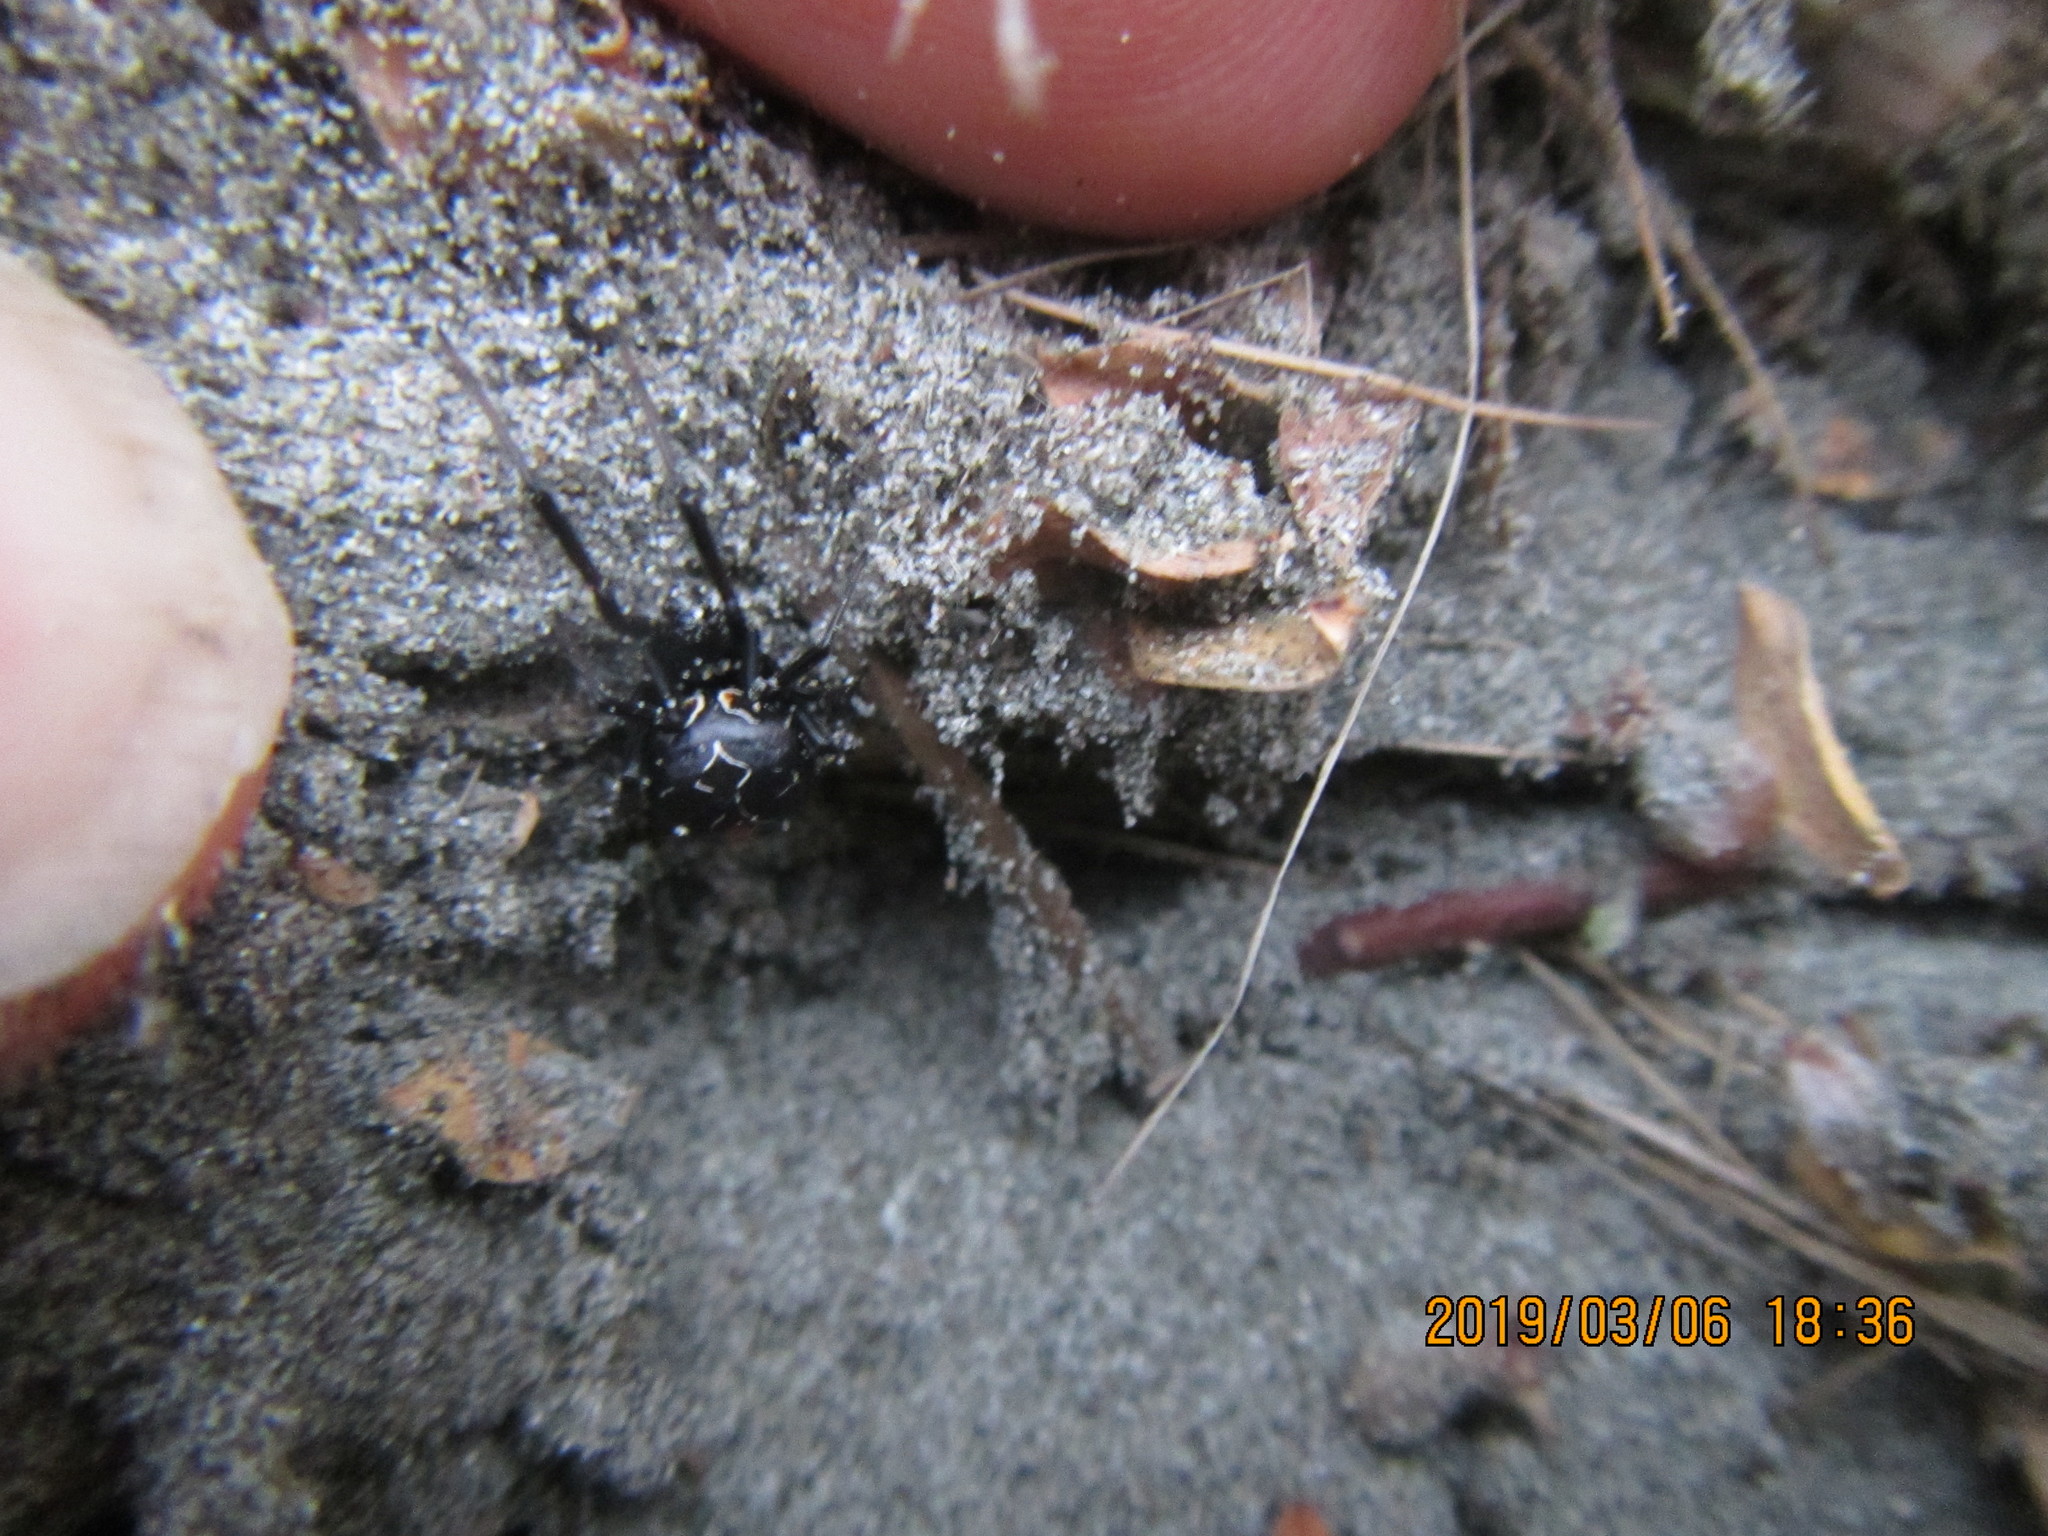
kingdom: Plantae
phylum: Tracheophyta
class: Magnoliopsida
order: Malvales
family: Thymelaeaceae
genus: Pimelea
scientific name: Pimelea villosa
